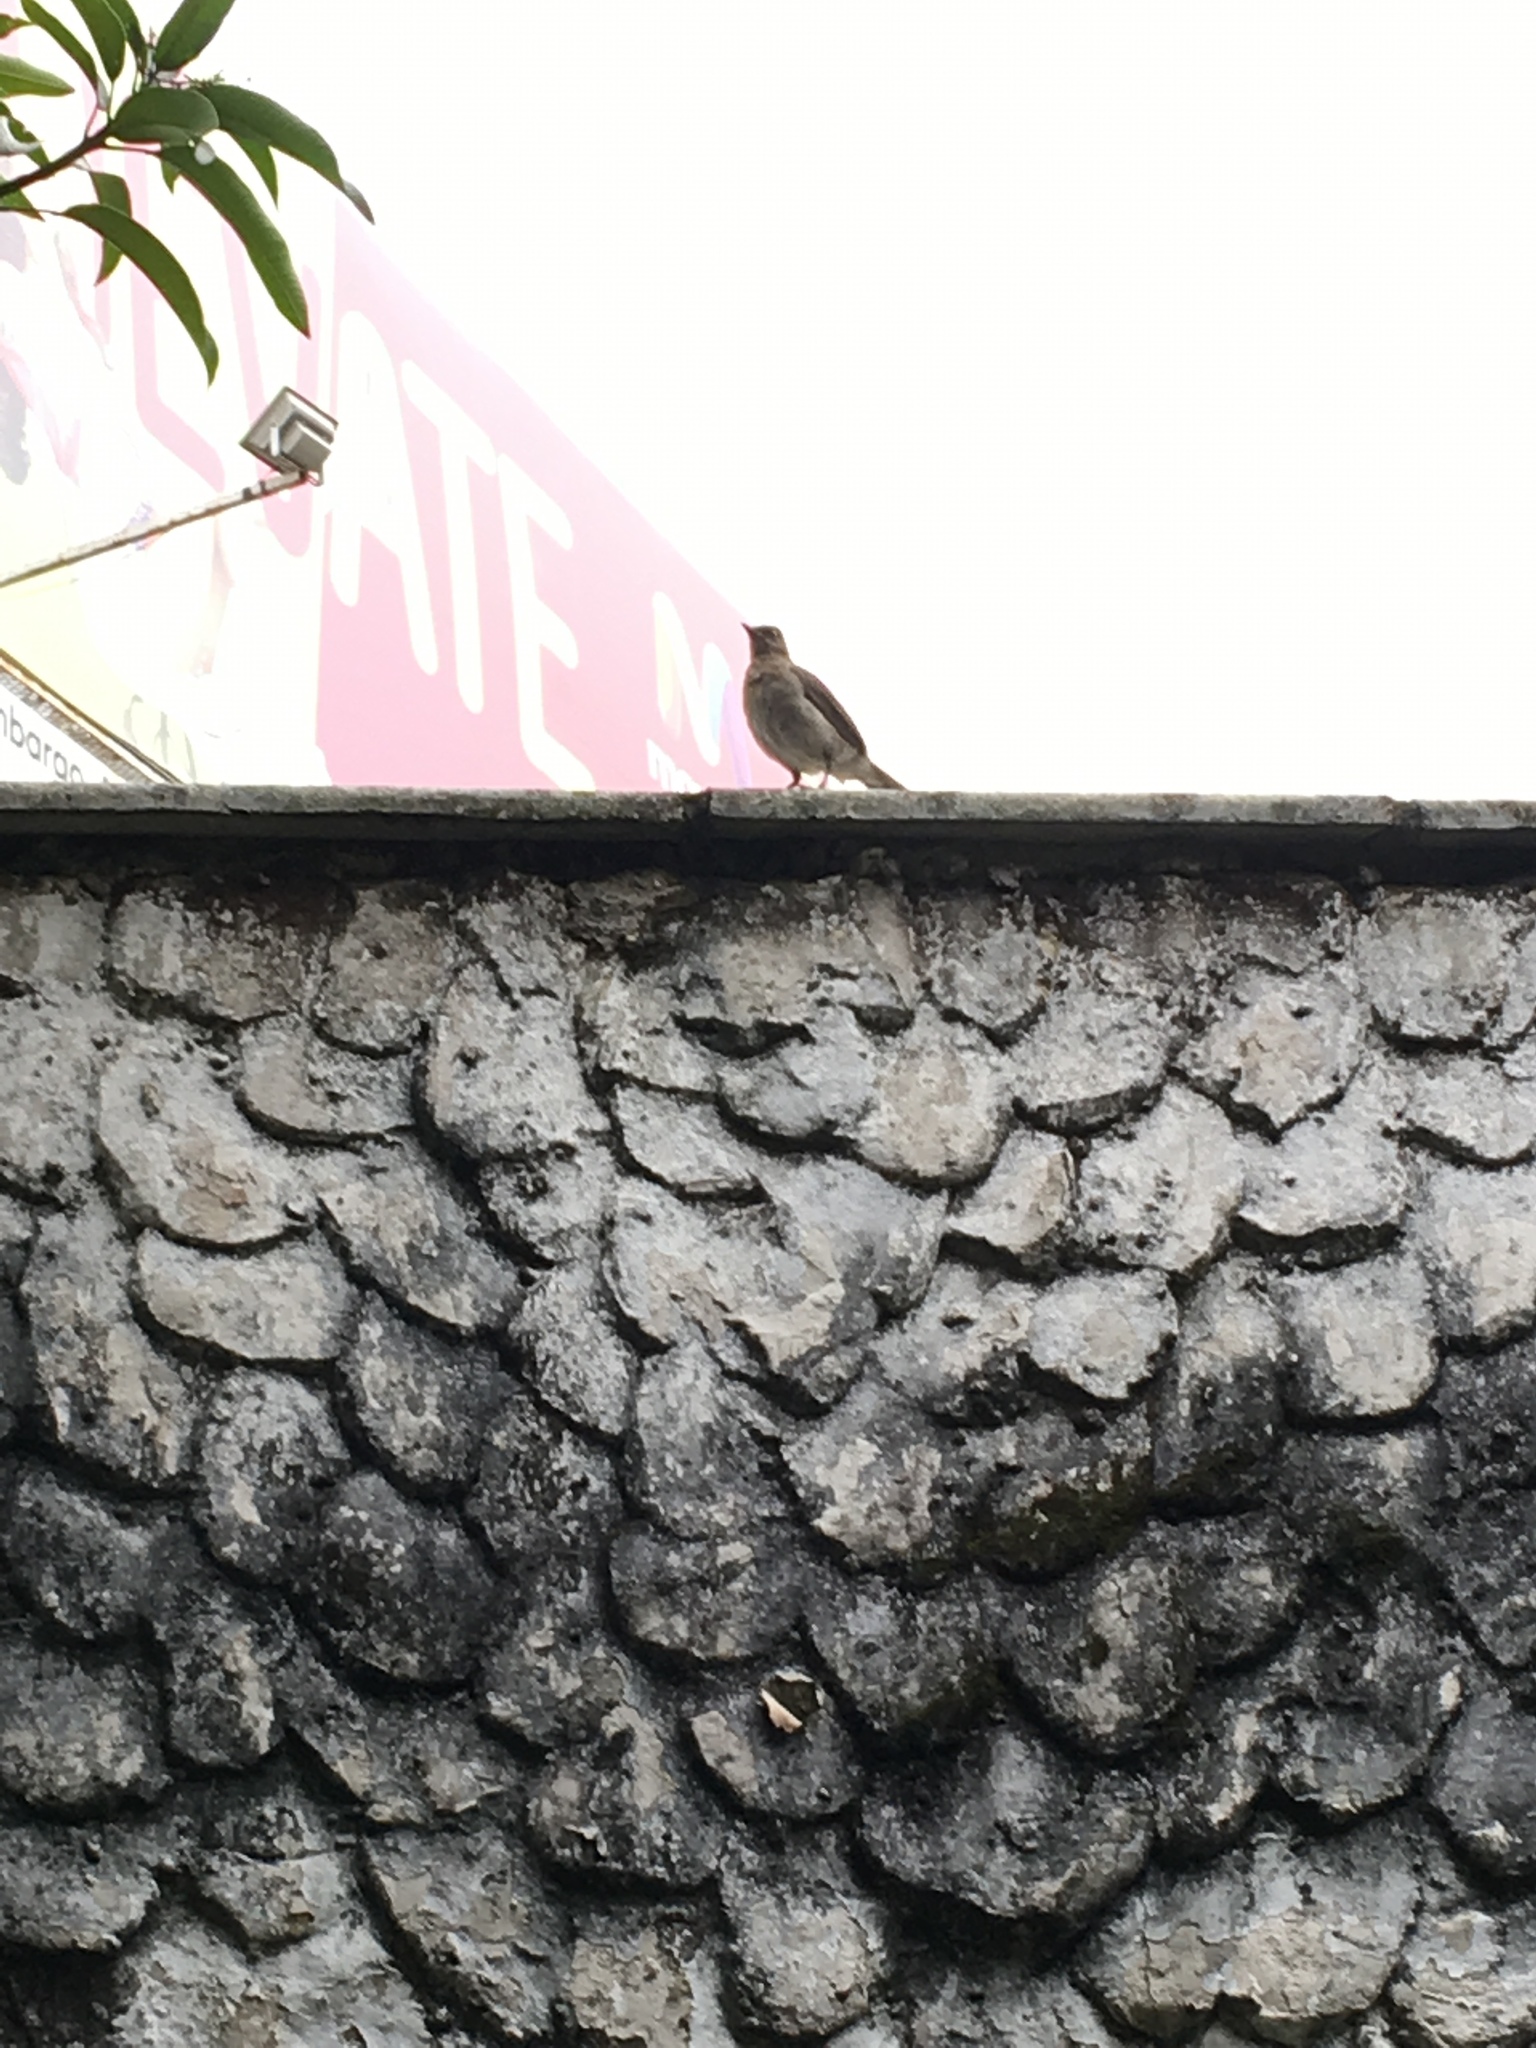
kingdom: Animalia
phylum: Chordata
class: Aves
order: Passeriformes
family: Turdidae
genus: Turdus
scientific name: Turdus ignobilis
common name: Black-billed thrush
